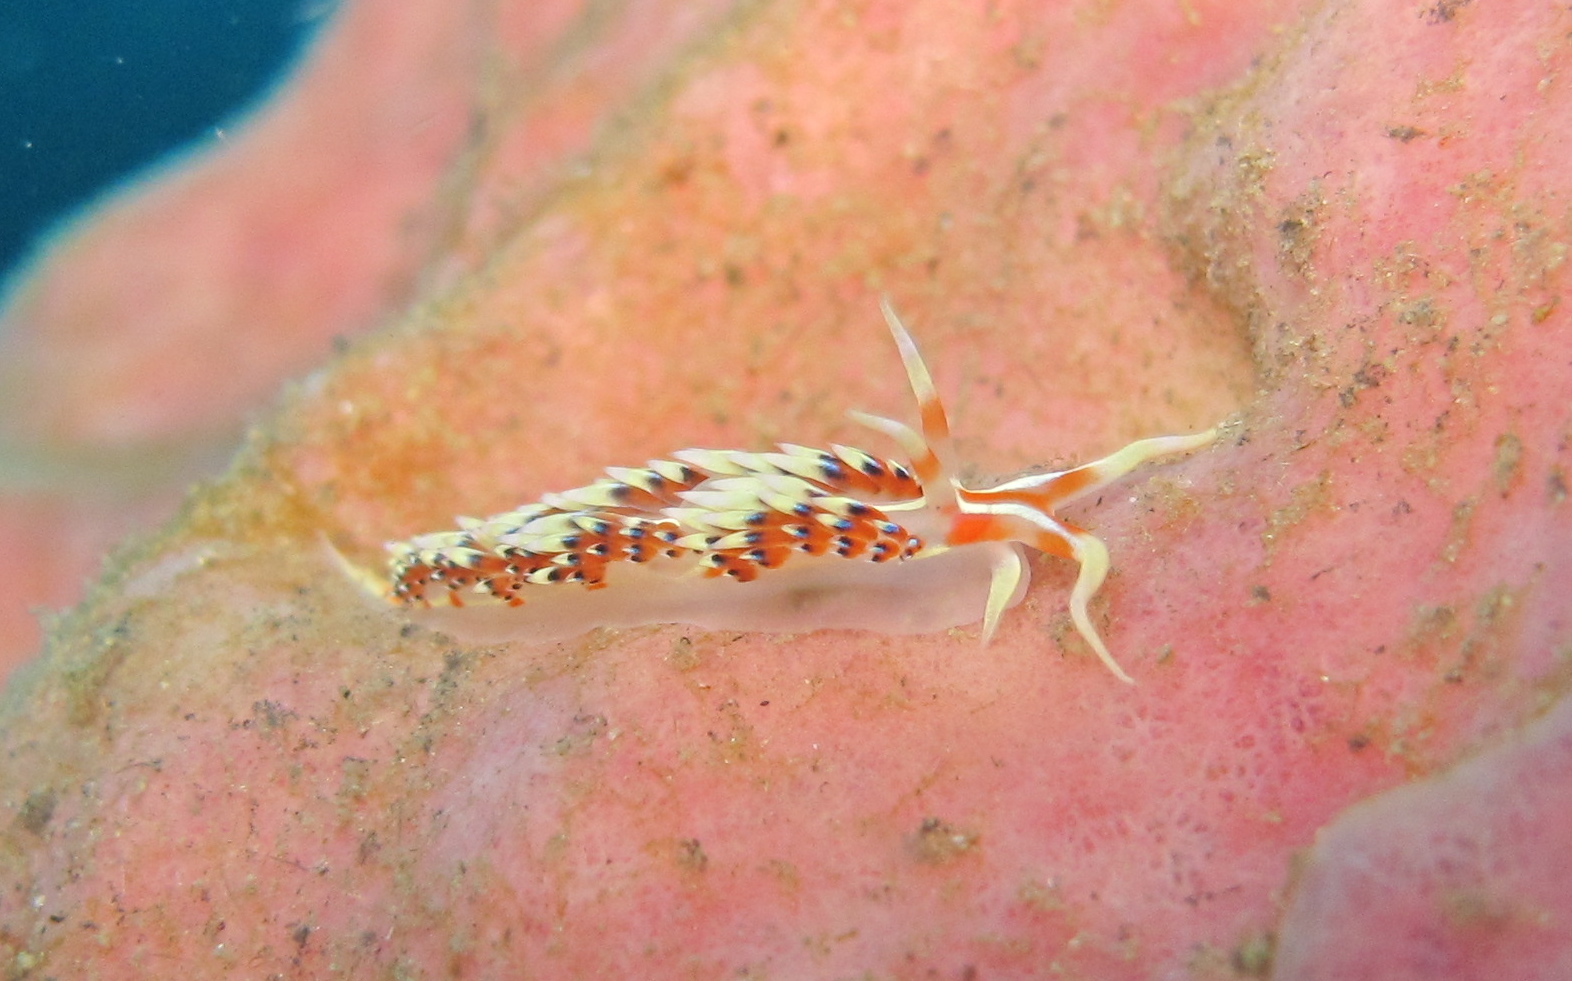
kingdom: Animalia
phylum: Mollusca
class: Gastropoda
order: Nudibranchia
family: Facelinidae
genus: Caloria
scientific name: Caloria indica
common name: Sea slug
